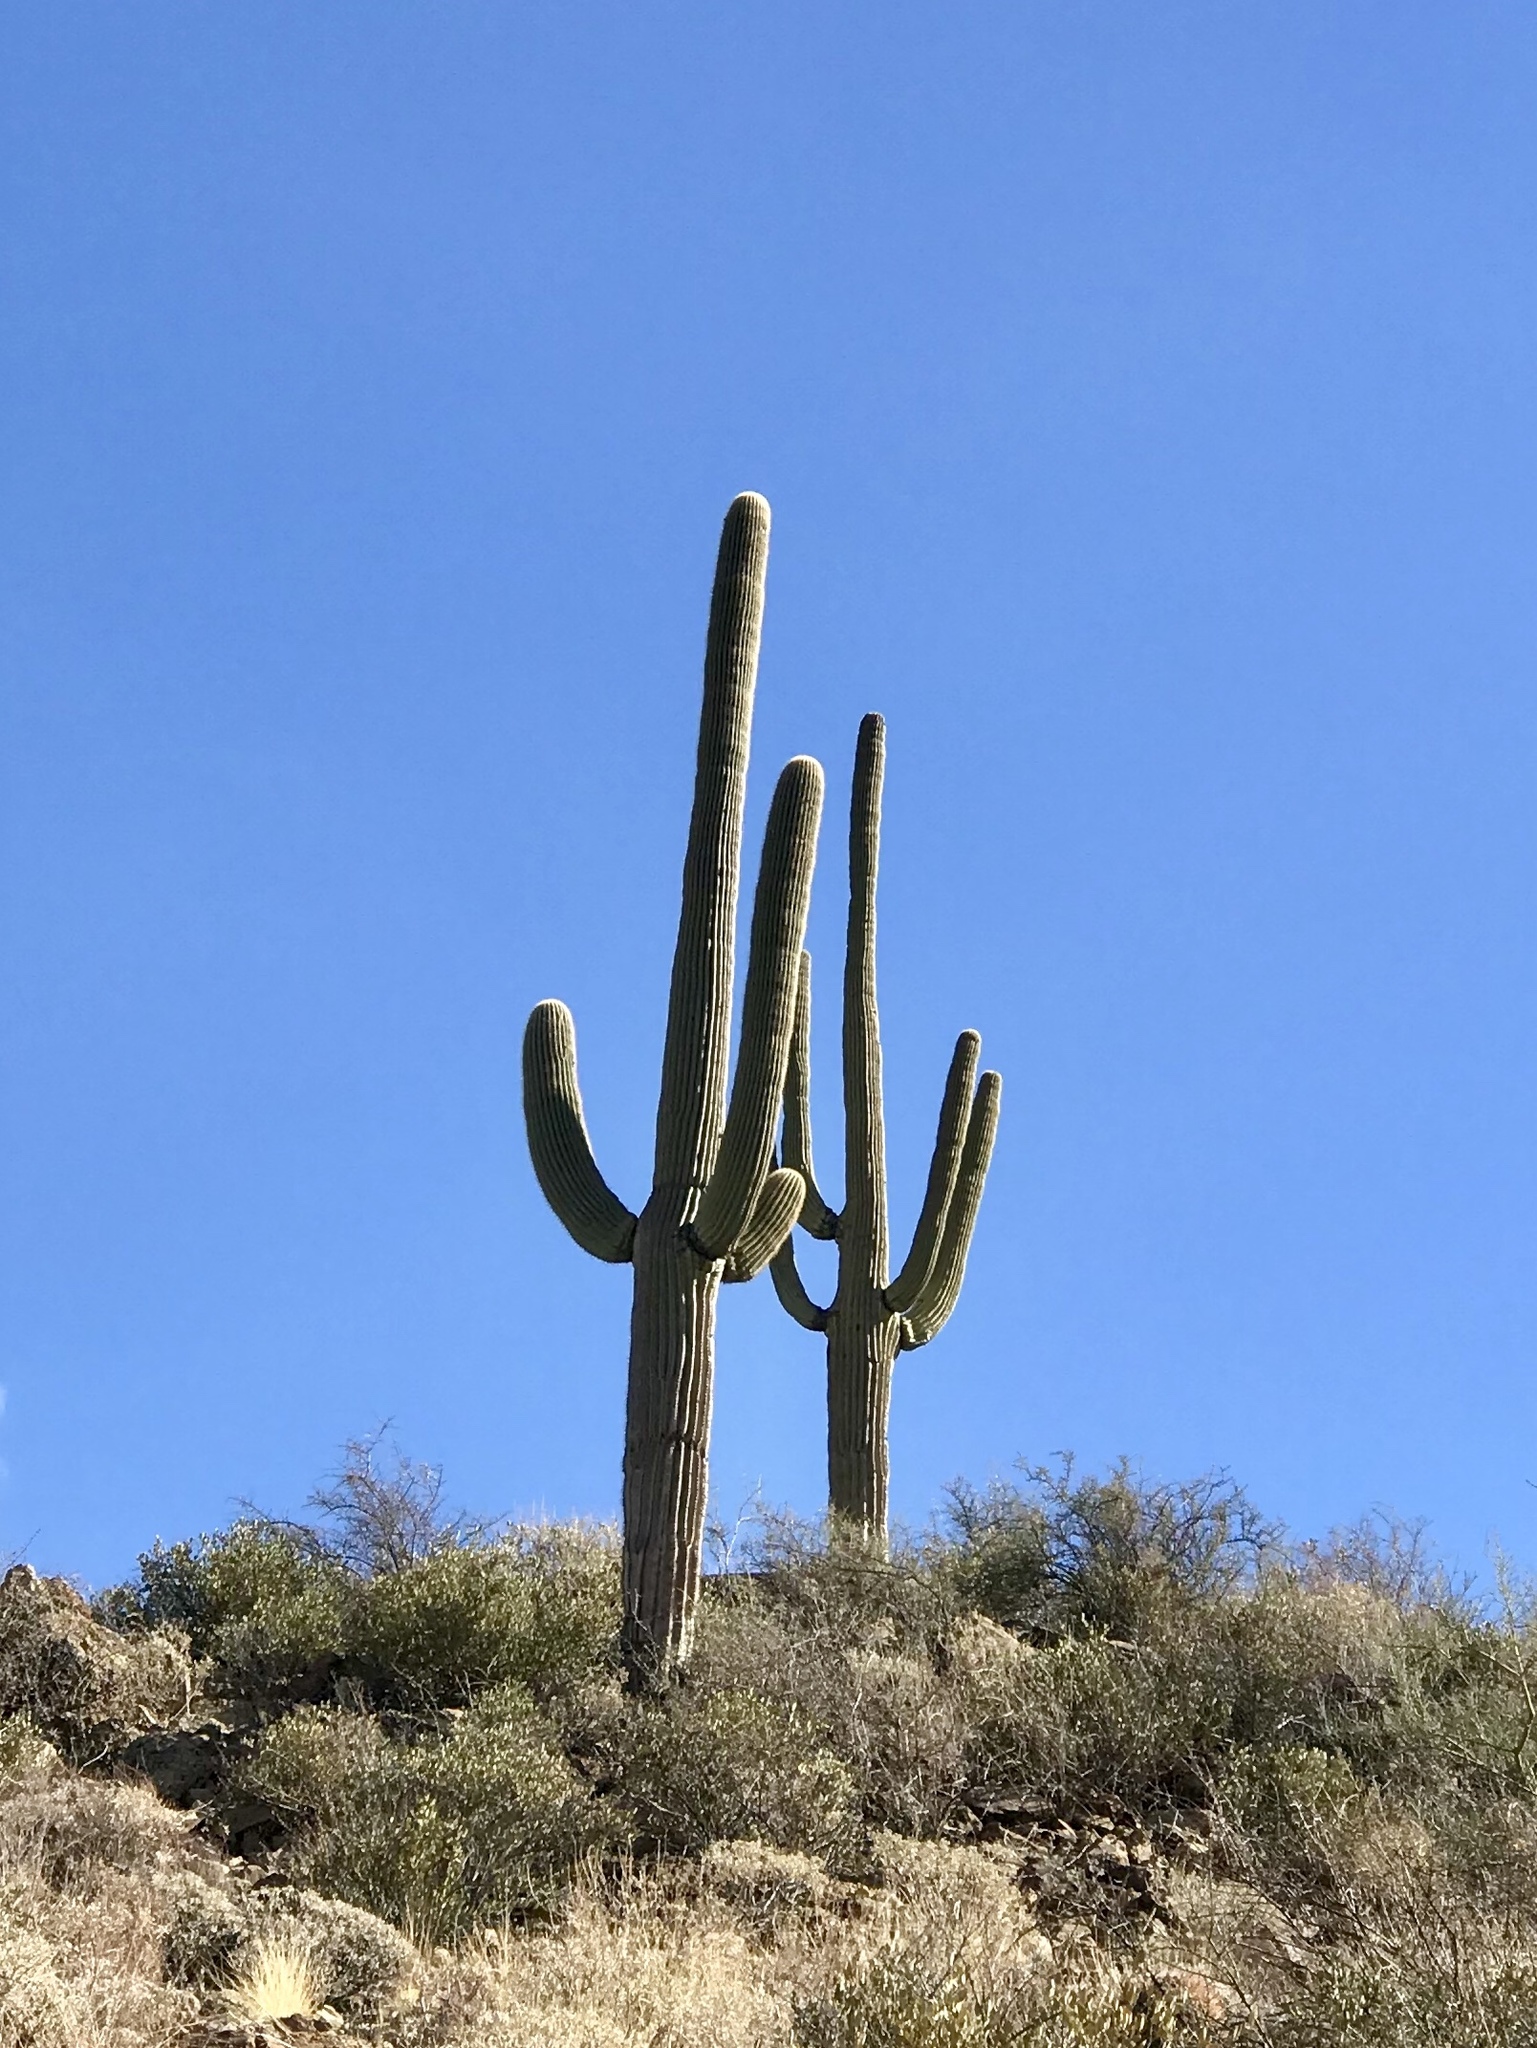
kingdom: Plantae
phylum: Tracheophyta
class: Magnoliopsida
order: Caryophyllales
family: Cactaceae
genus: Carnegiea
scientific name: Carnegiea gigantea
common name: Saguaro
